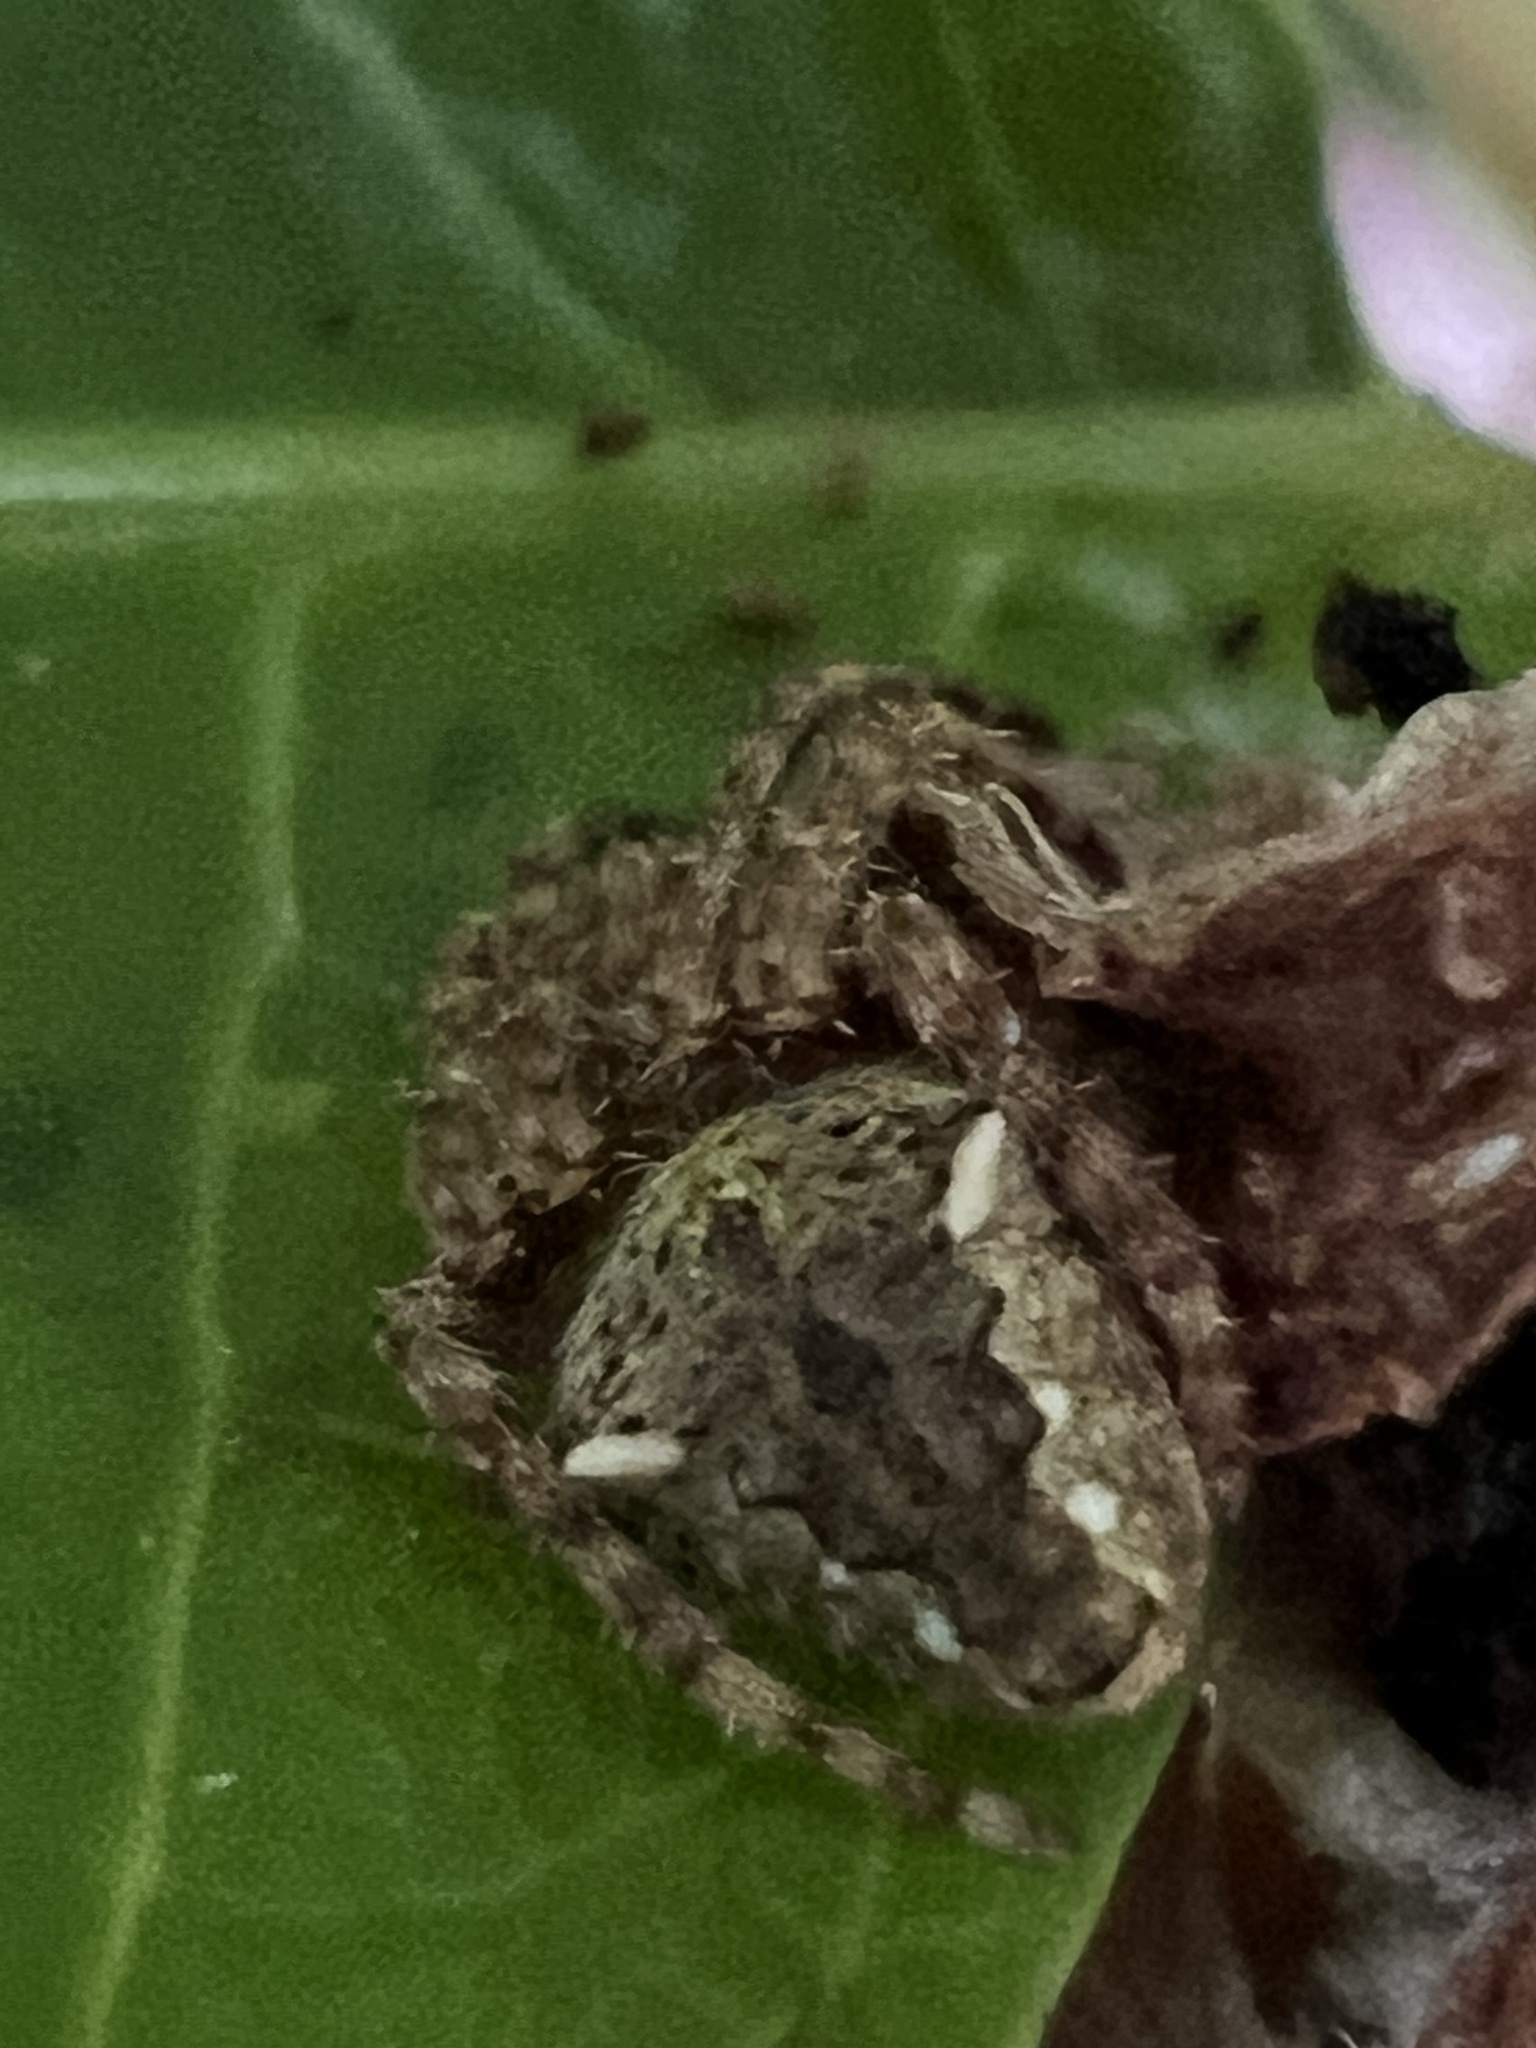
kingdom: Animalia
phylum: Arthropoda
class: Arachnida
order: Araneae
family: Araneidae
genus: Hortophora
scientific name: Hortophora transmarina
